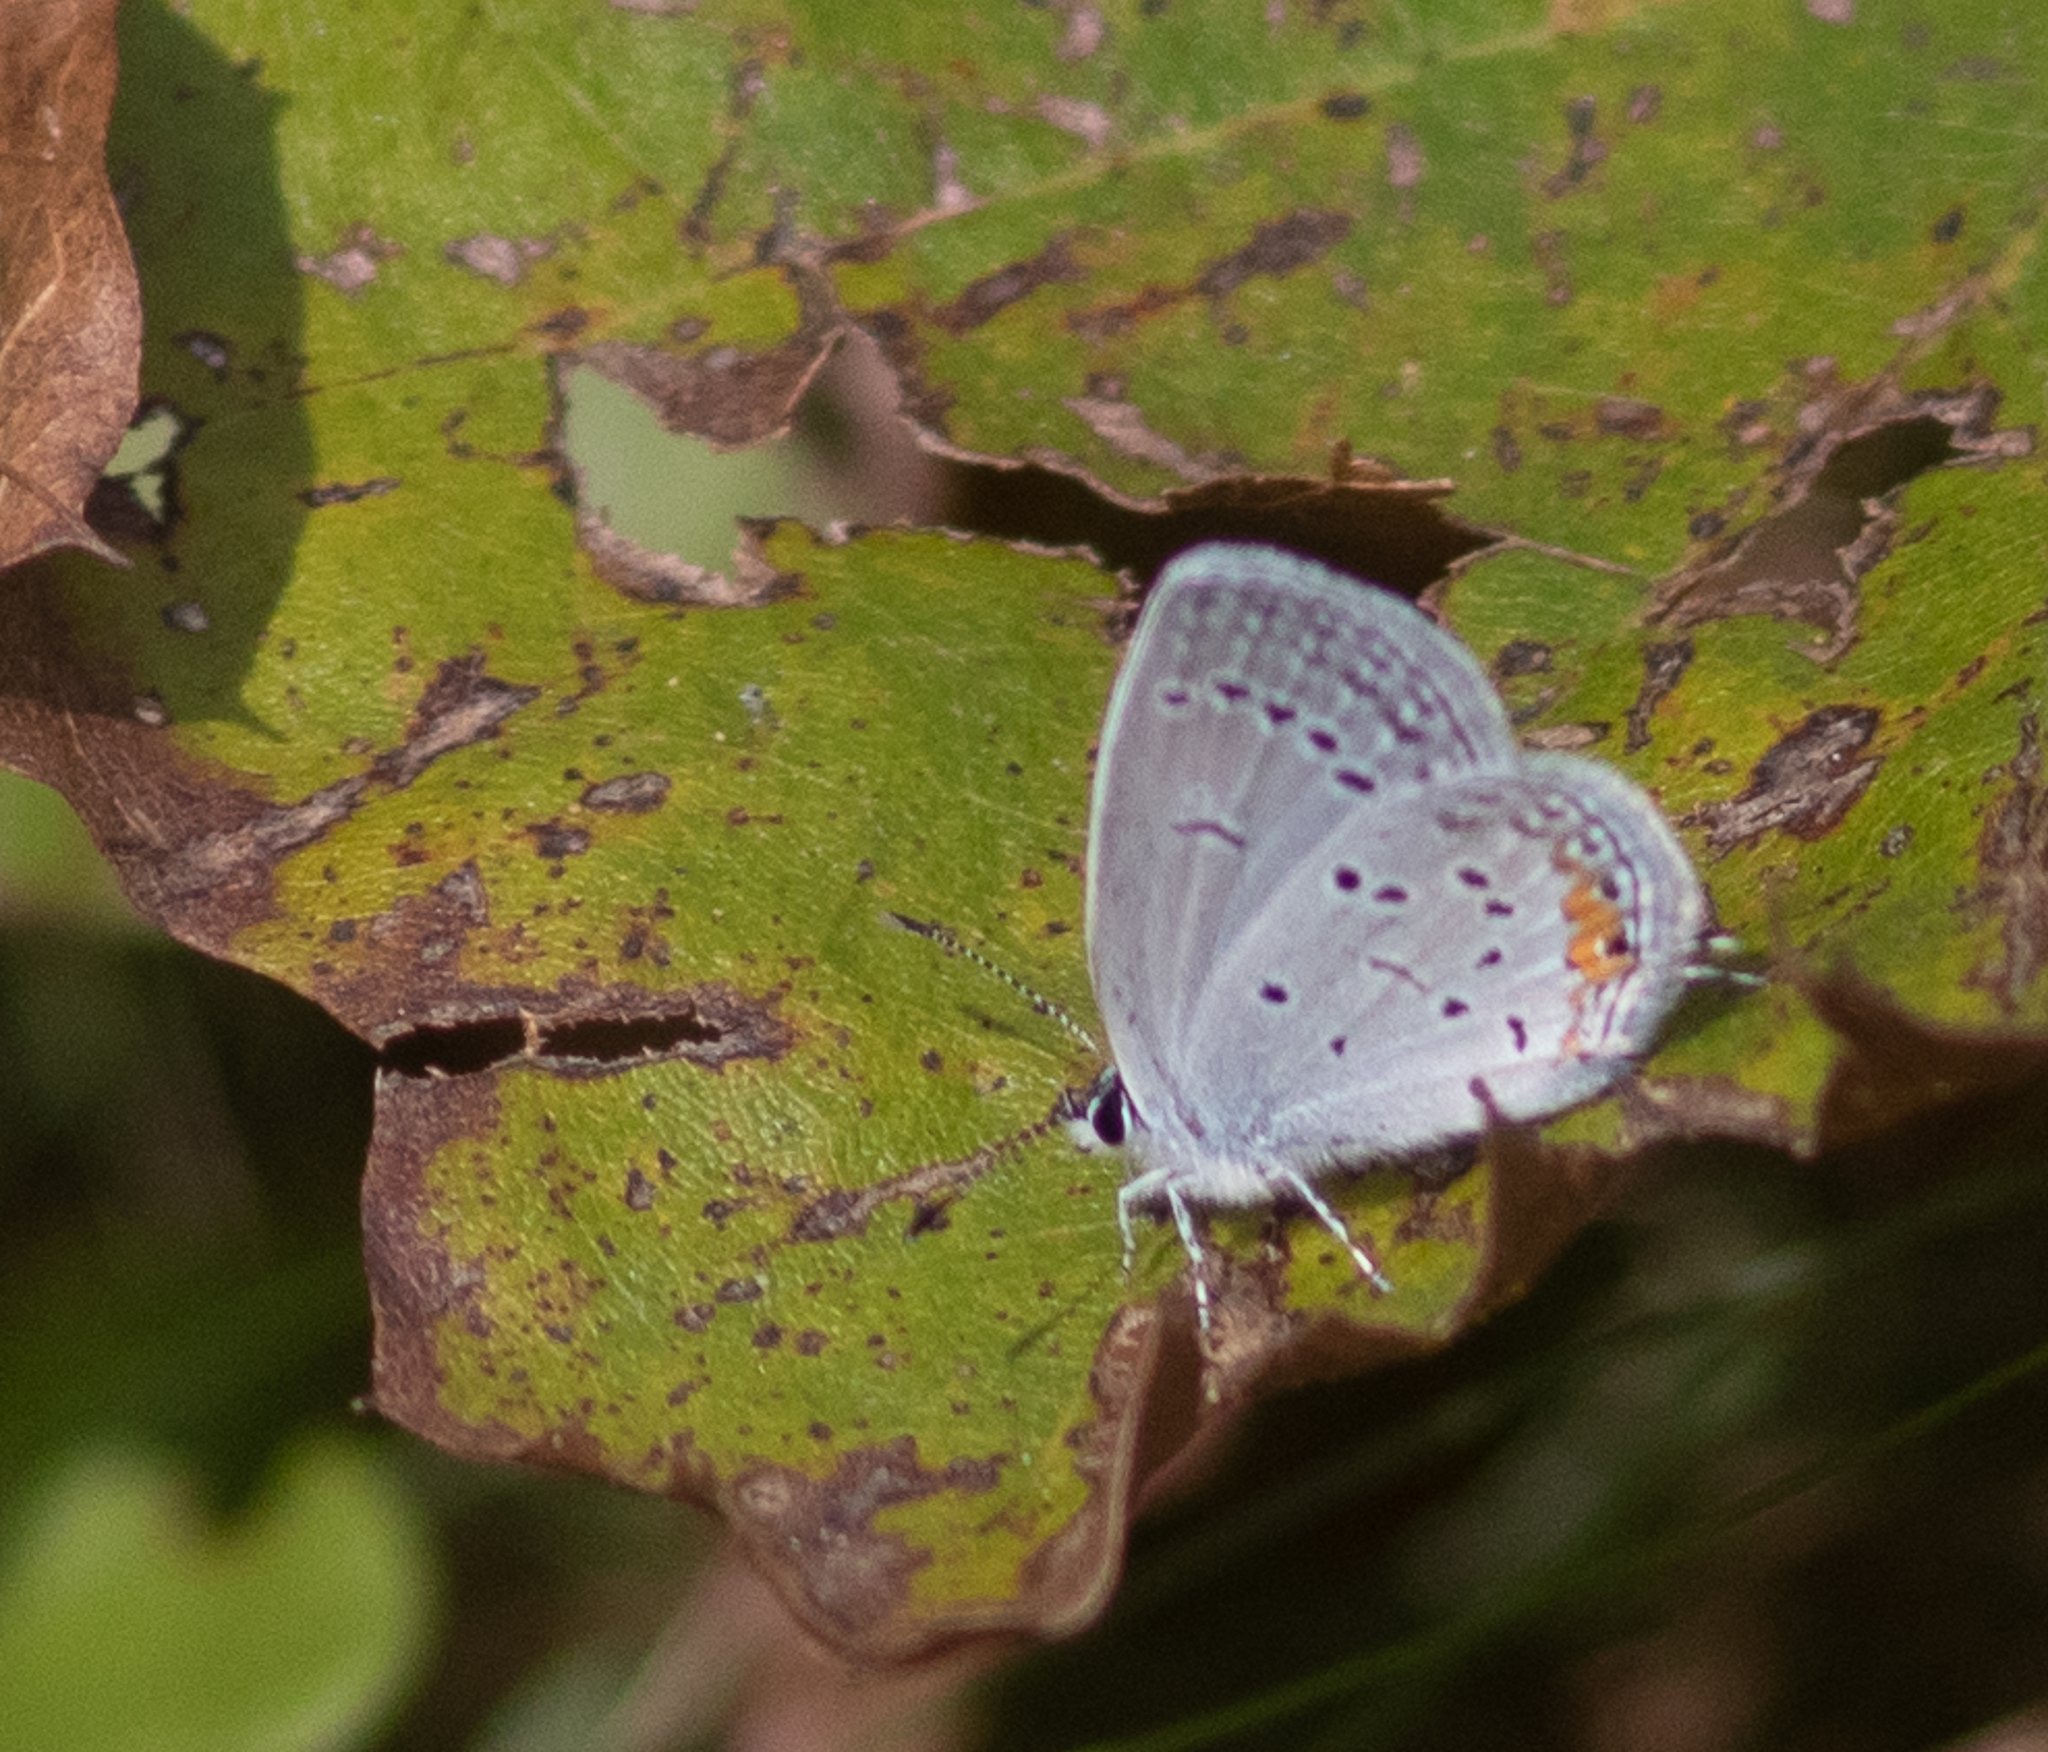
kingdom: Animalia
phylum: Arthropoda
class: Insecta
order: Lepidoptera
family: Lycaenidae
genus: Elkalyce
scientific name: Elkalyce comyntas
